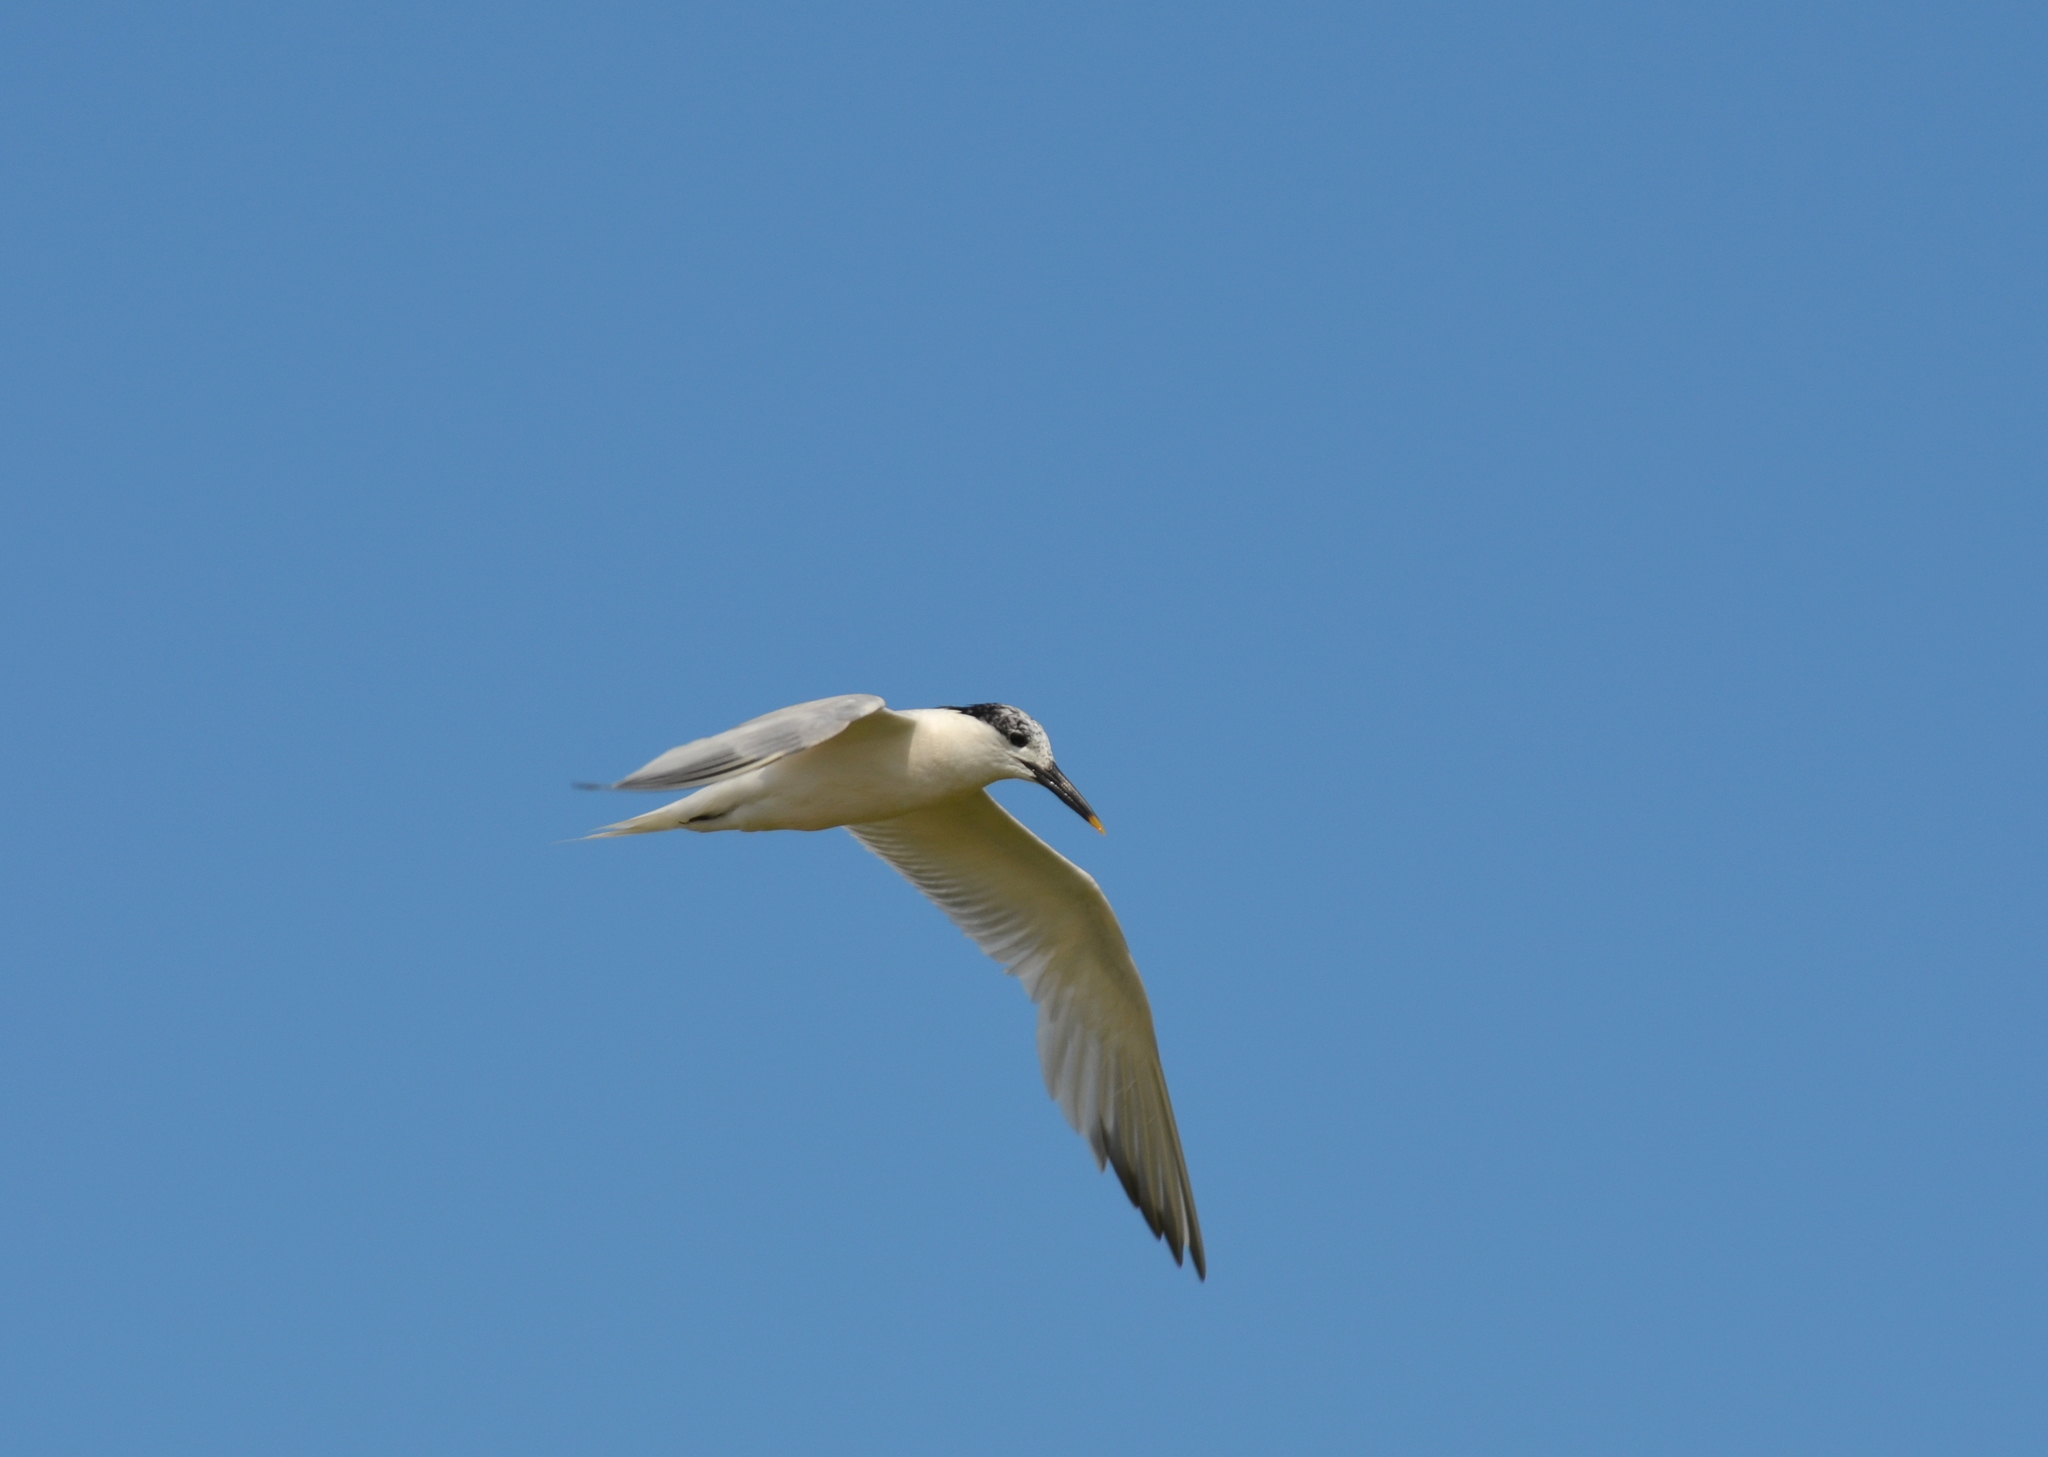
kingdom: Animalia
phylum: Chordata
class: Aves
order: Charadriiformes
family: Laridae
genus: Thalasseus
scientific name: Thalasseus sandvicensis
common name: Sandwich tern
